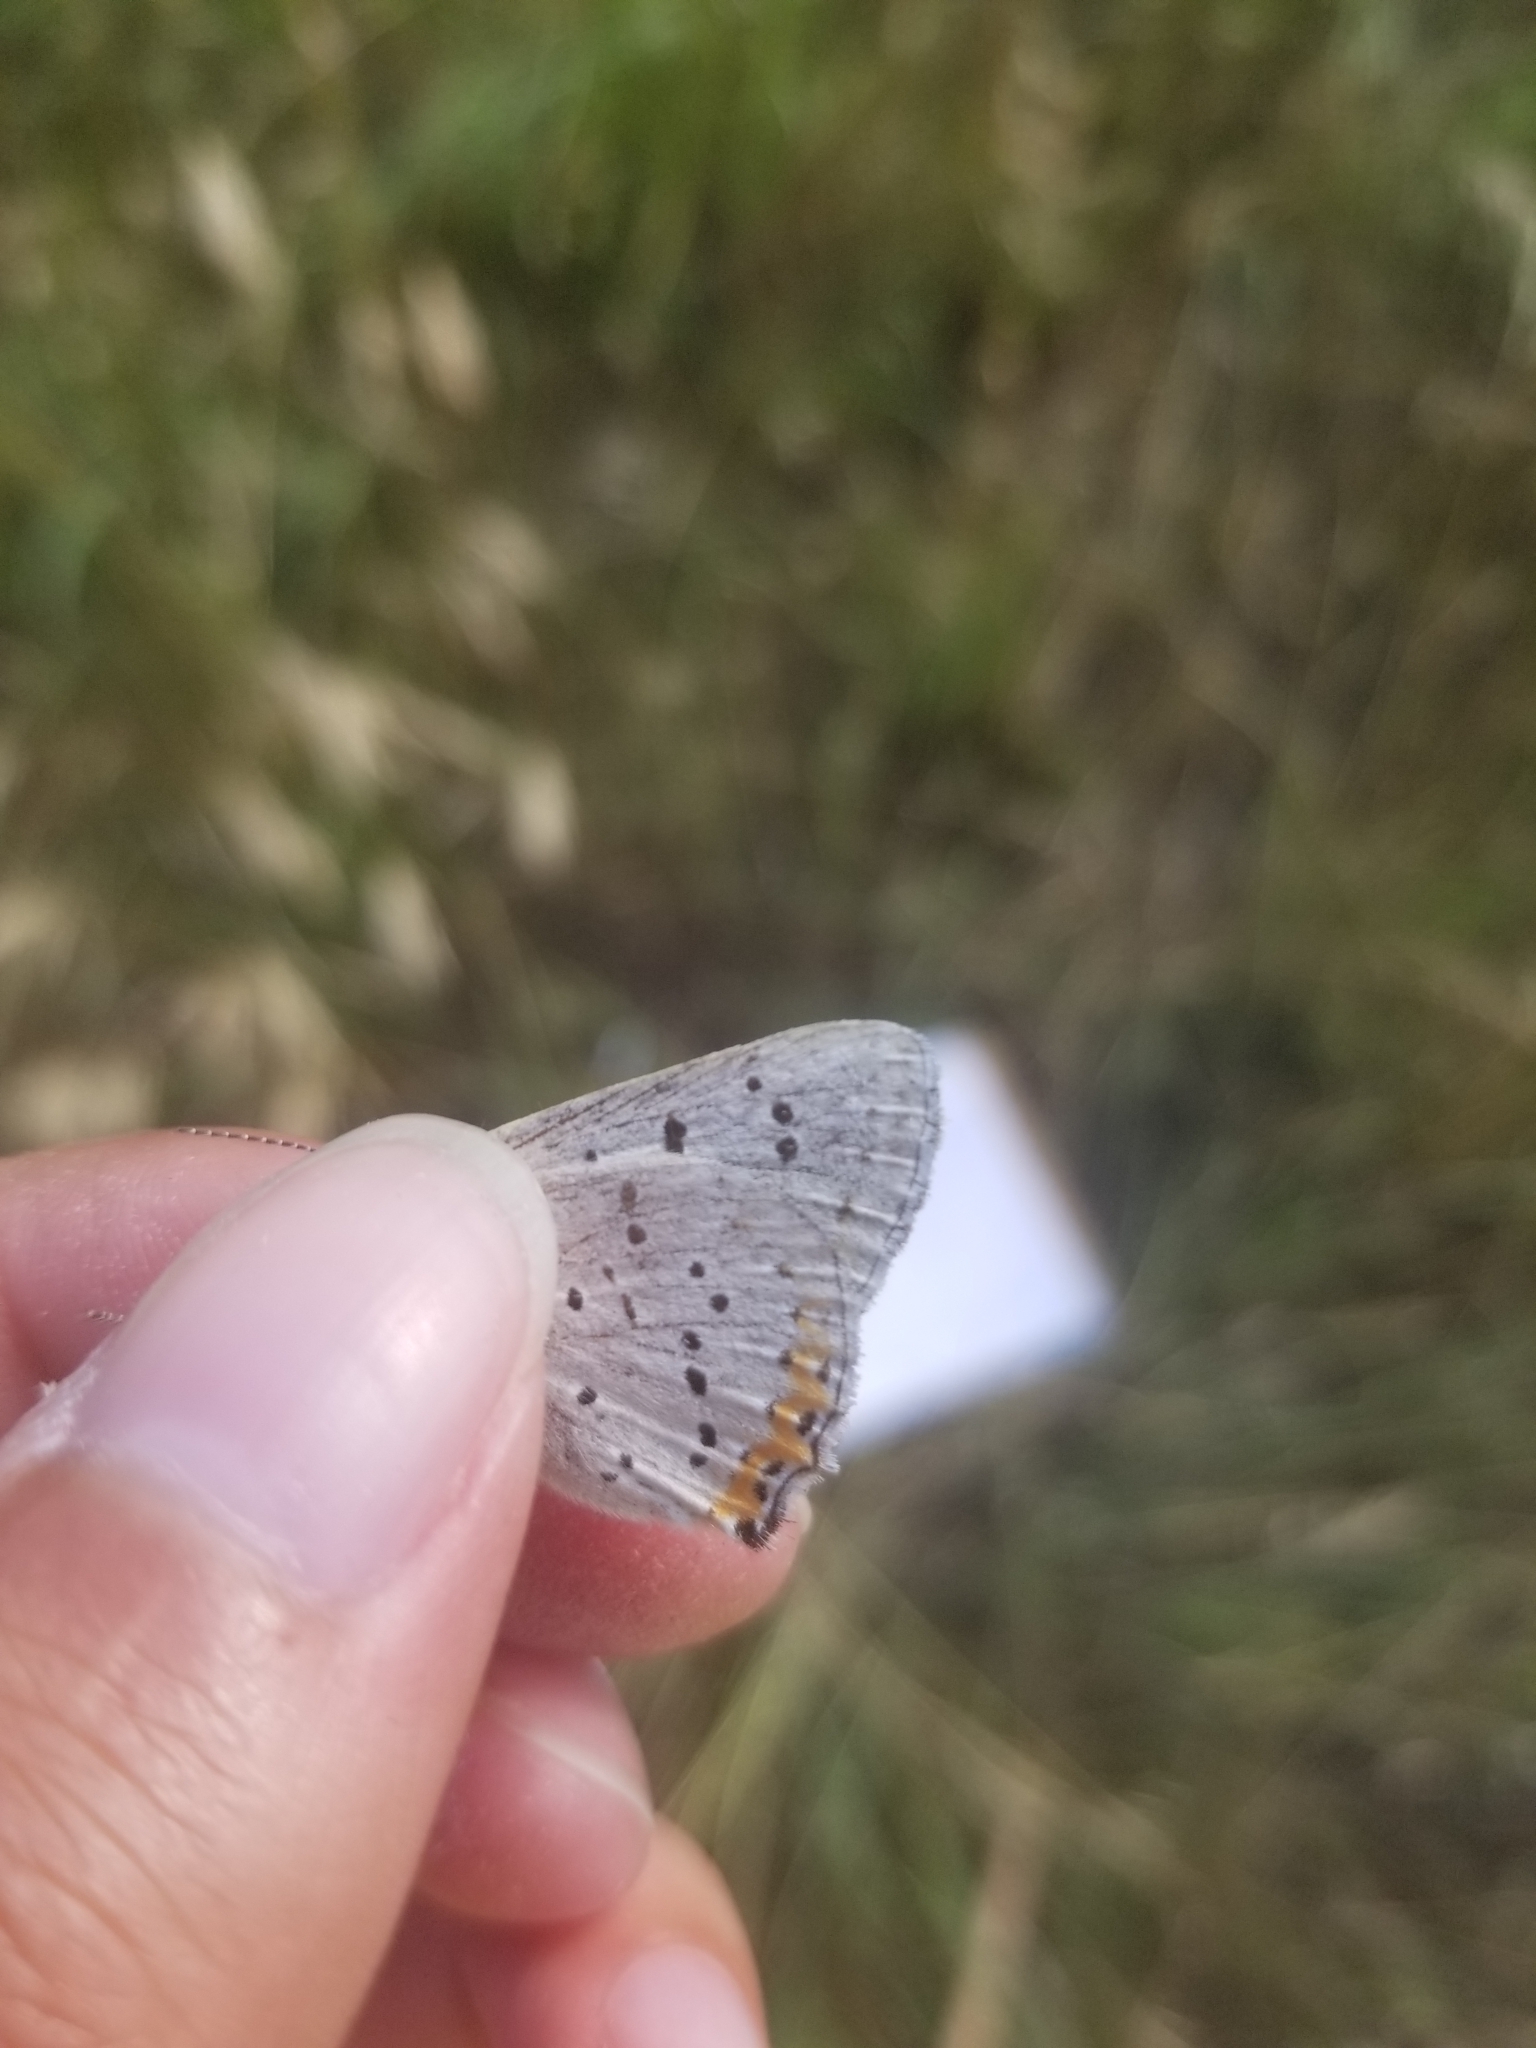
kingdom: Animalia
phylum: Arthropoda
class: Insecta
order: Lepidoptera
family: Lycaenidae
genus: Tharsalea
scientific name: Tharsalea dione
